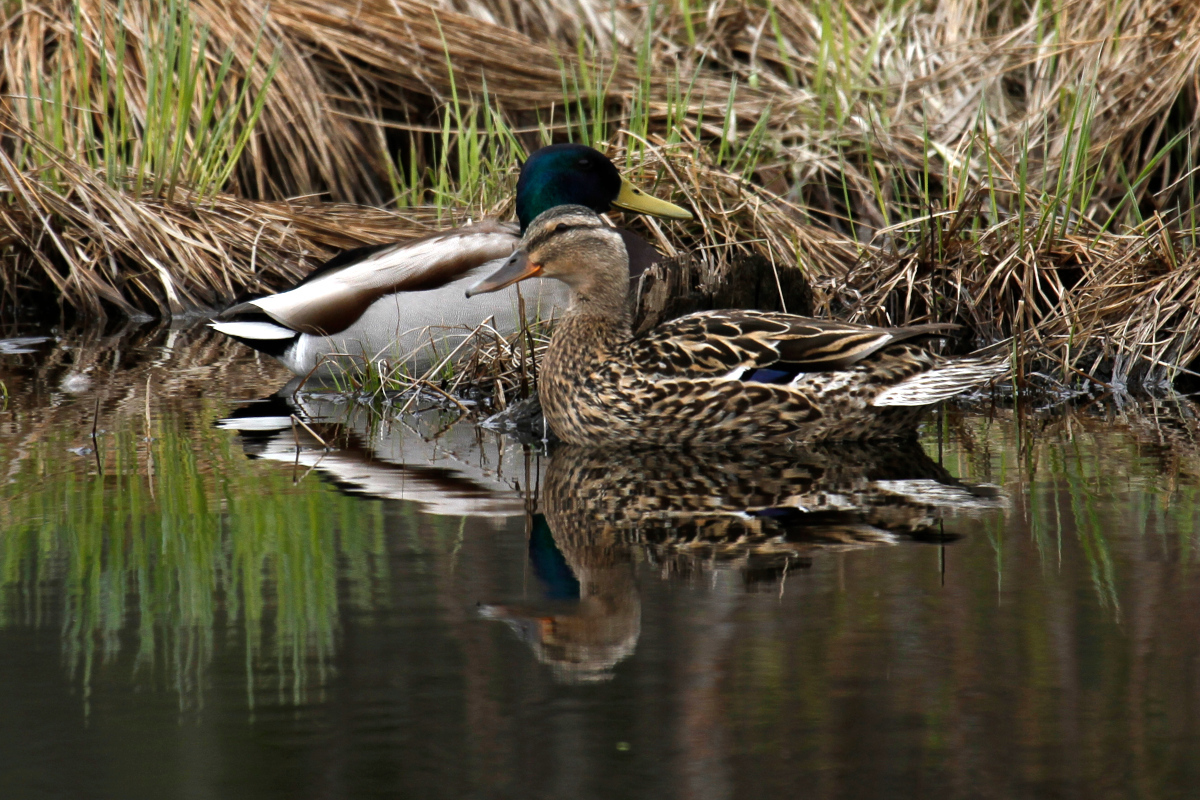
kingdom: Animalia
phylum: Chordata
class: Aves
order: Anseriformes
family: Anatidae
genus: Anas
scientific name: Anas platyrhynchos
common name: Mallard
